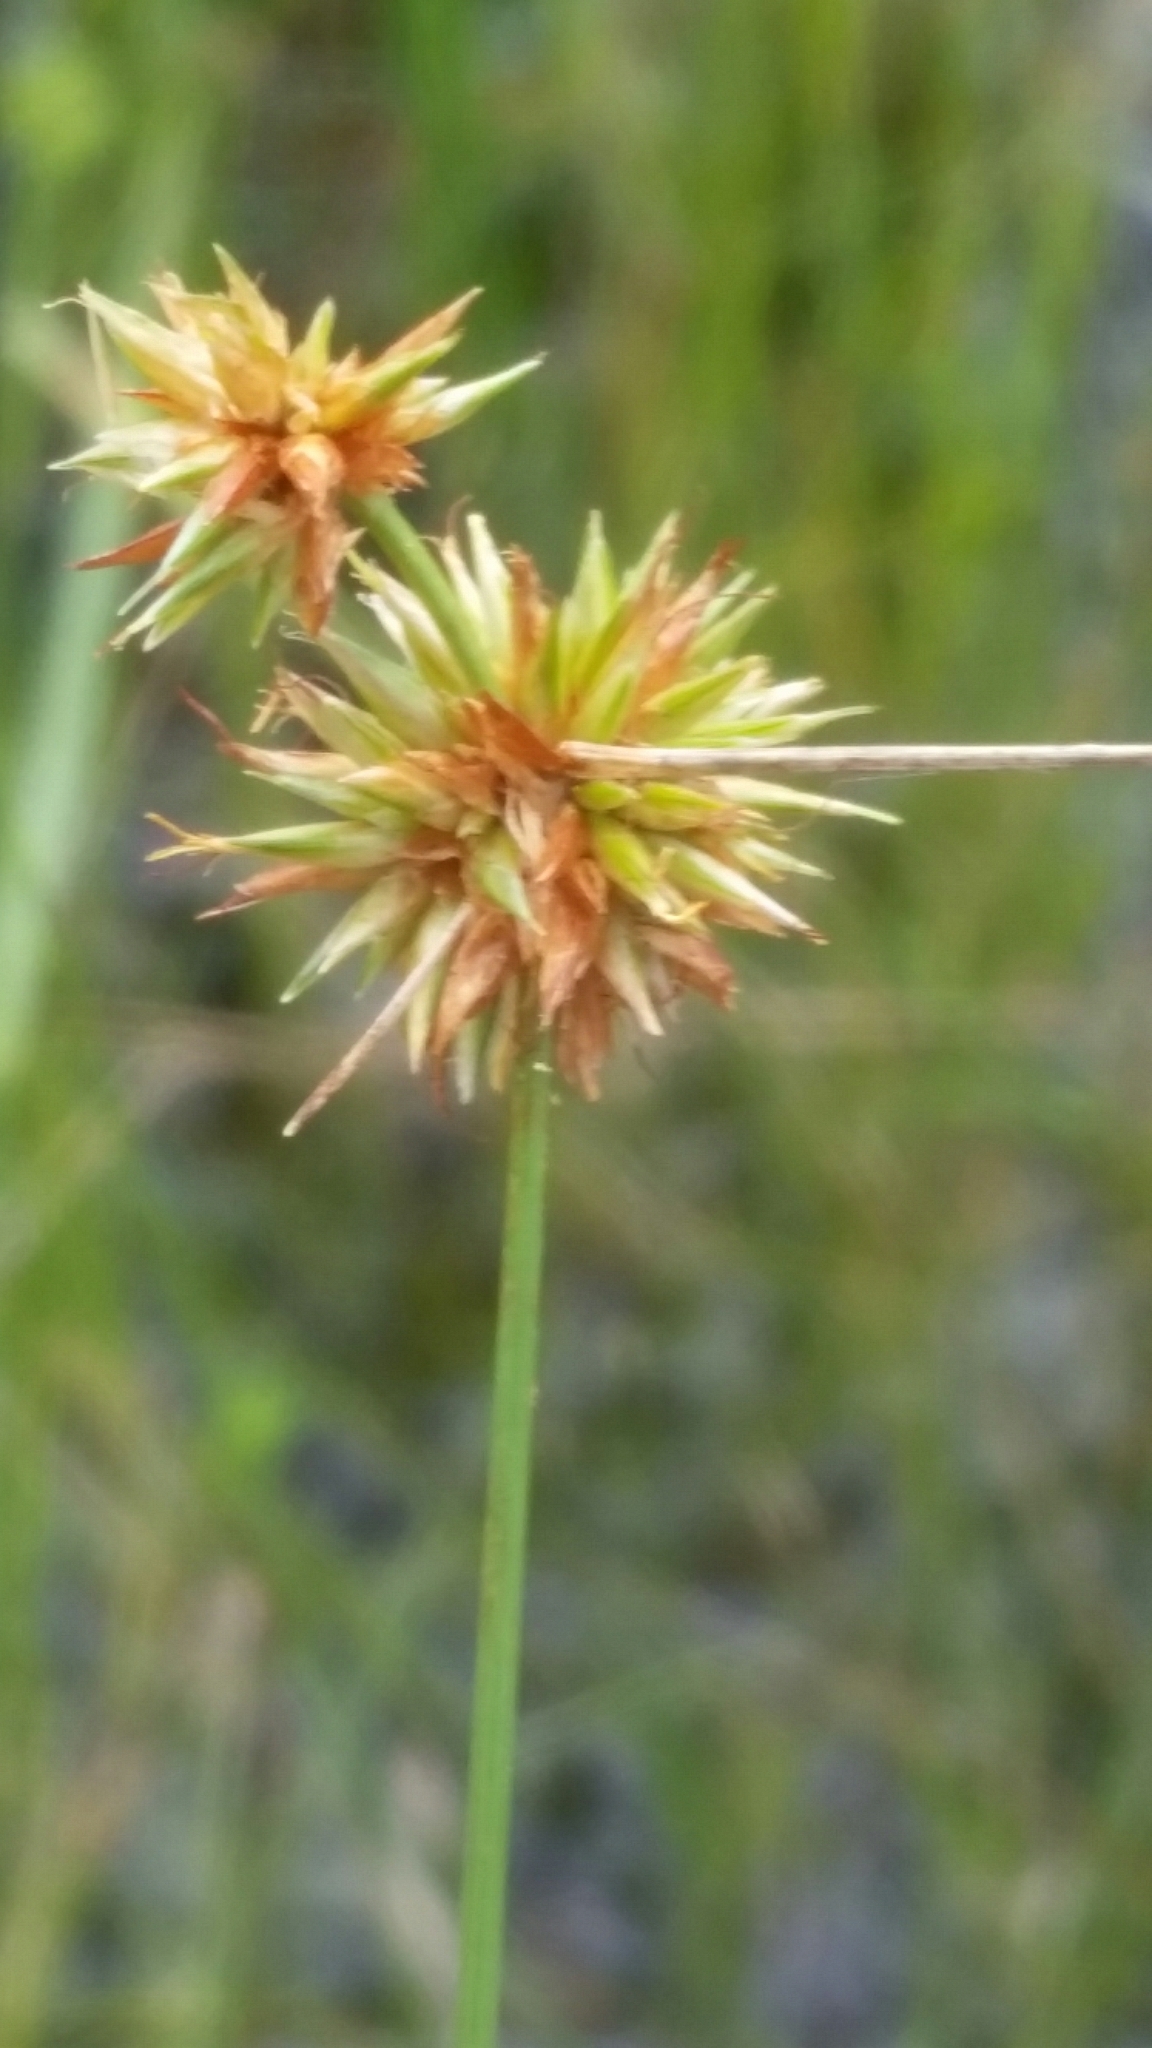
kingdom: Plantae
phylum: Tracheophyta
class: Liliopsida
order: Poales
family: Cyperaceae
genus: Rhynchospora
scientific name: Rhynchospora tracyi
